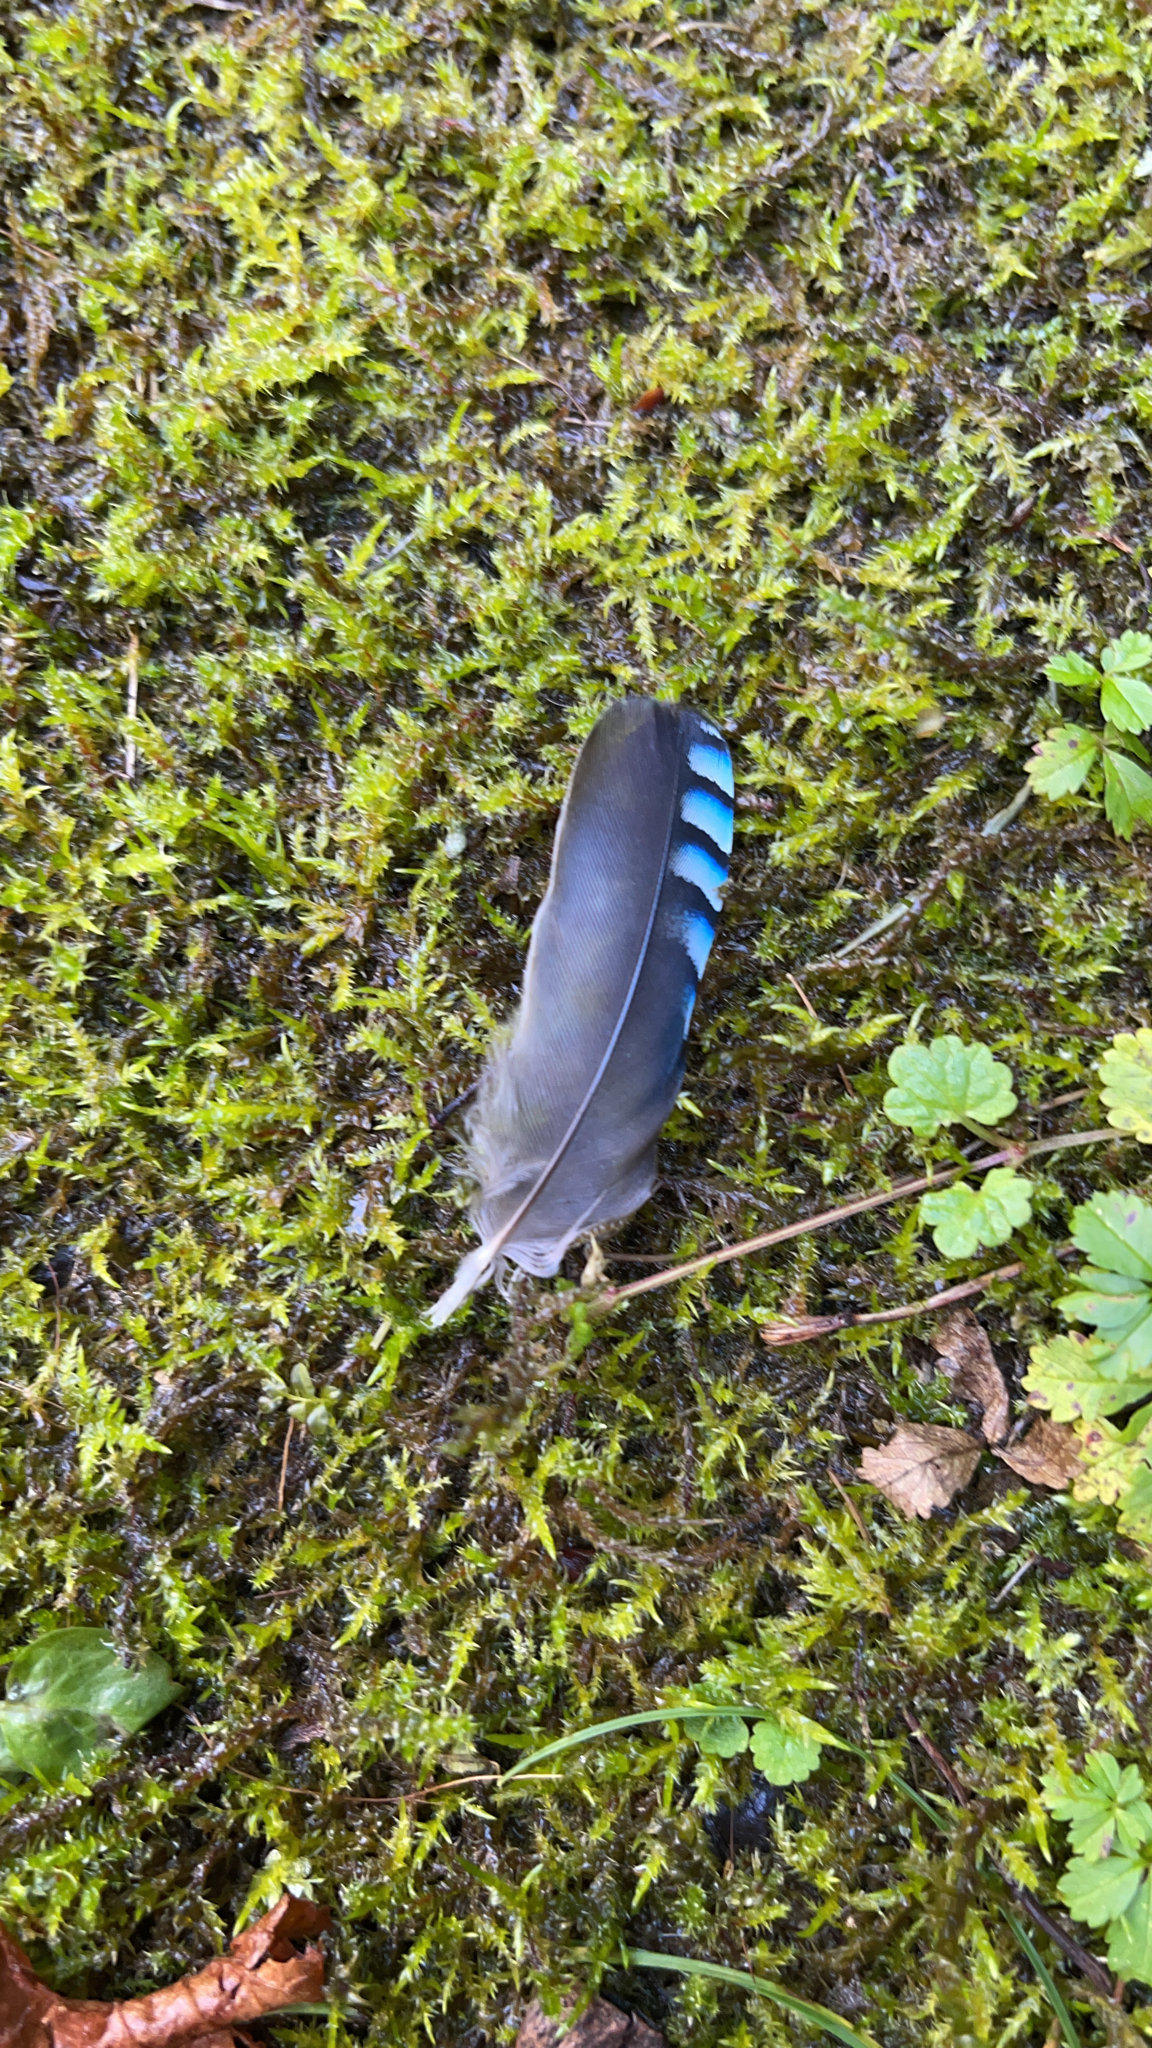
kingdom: Animalia
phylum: Chordata
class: Aves
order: Passeriformes
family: Corvidae
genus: Garrulus
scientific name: Garrulus glandarius
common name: Eurasian jay
